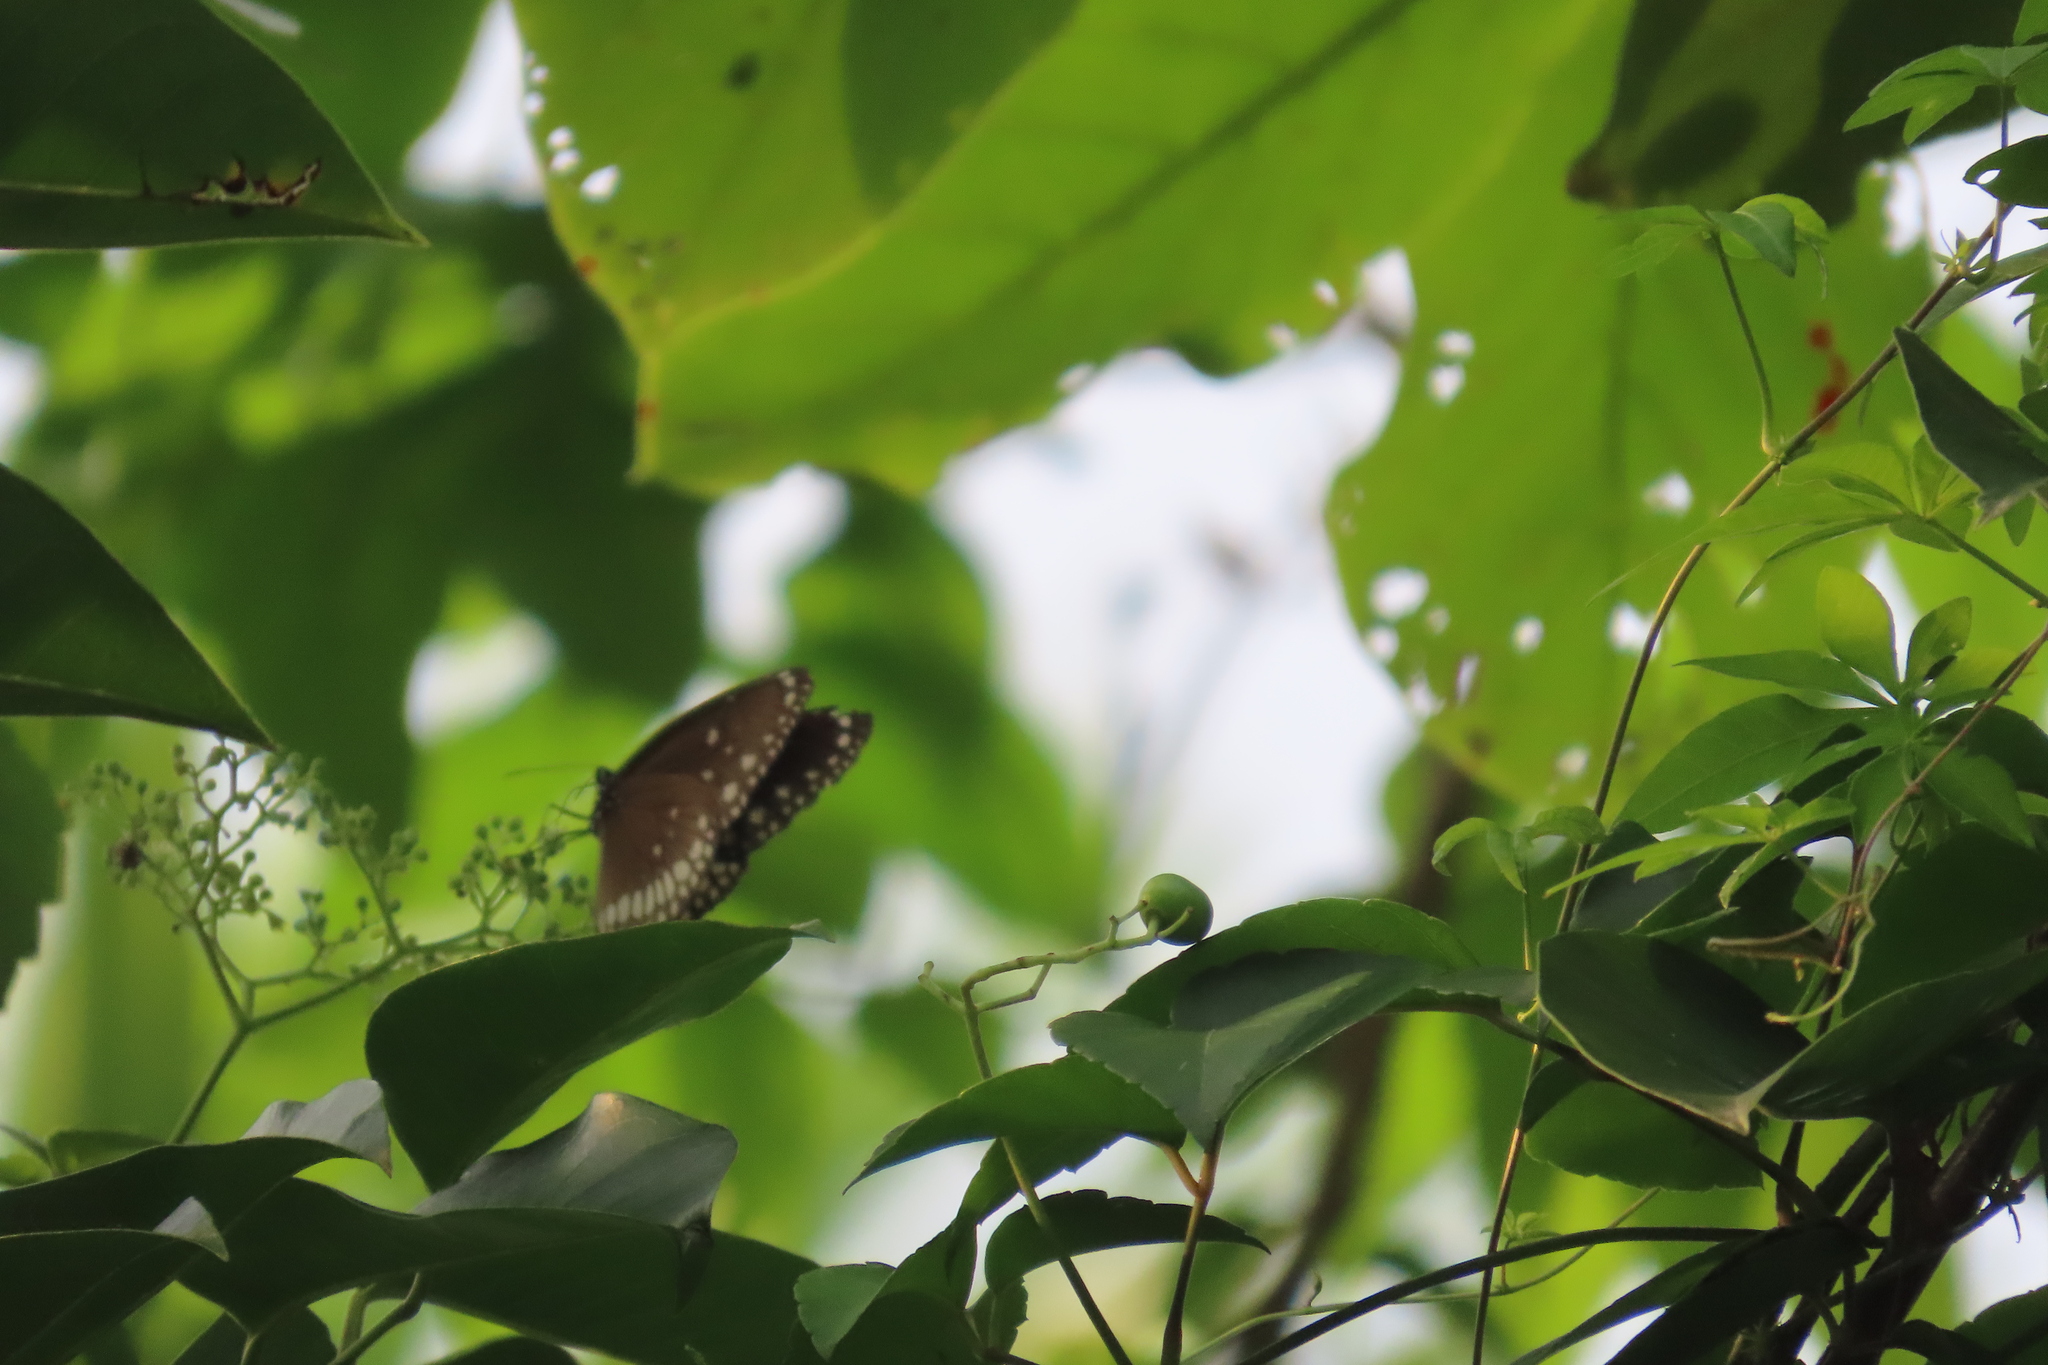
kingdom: Animalia
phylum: Arthropoda
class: Insecta
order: Lepidoptera
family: Nymphalidae
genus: Euploea
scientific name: Euploea core
